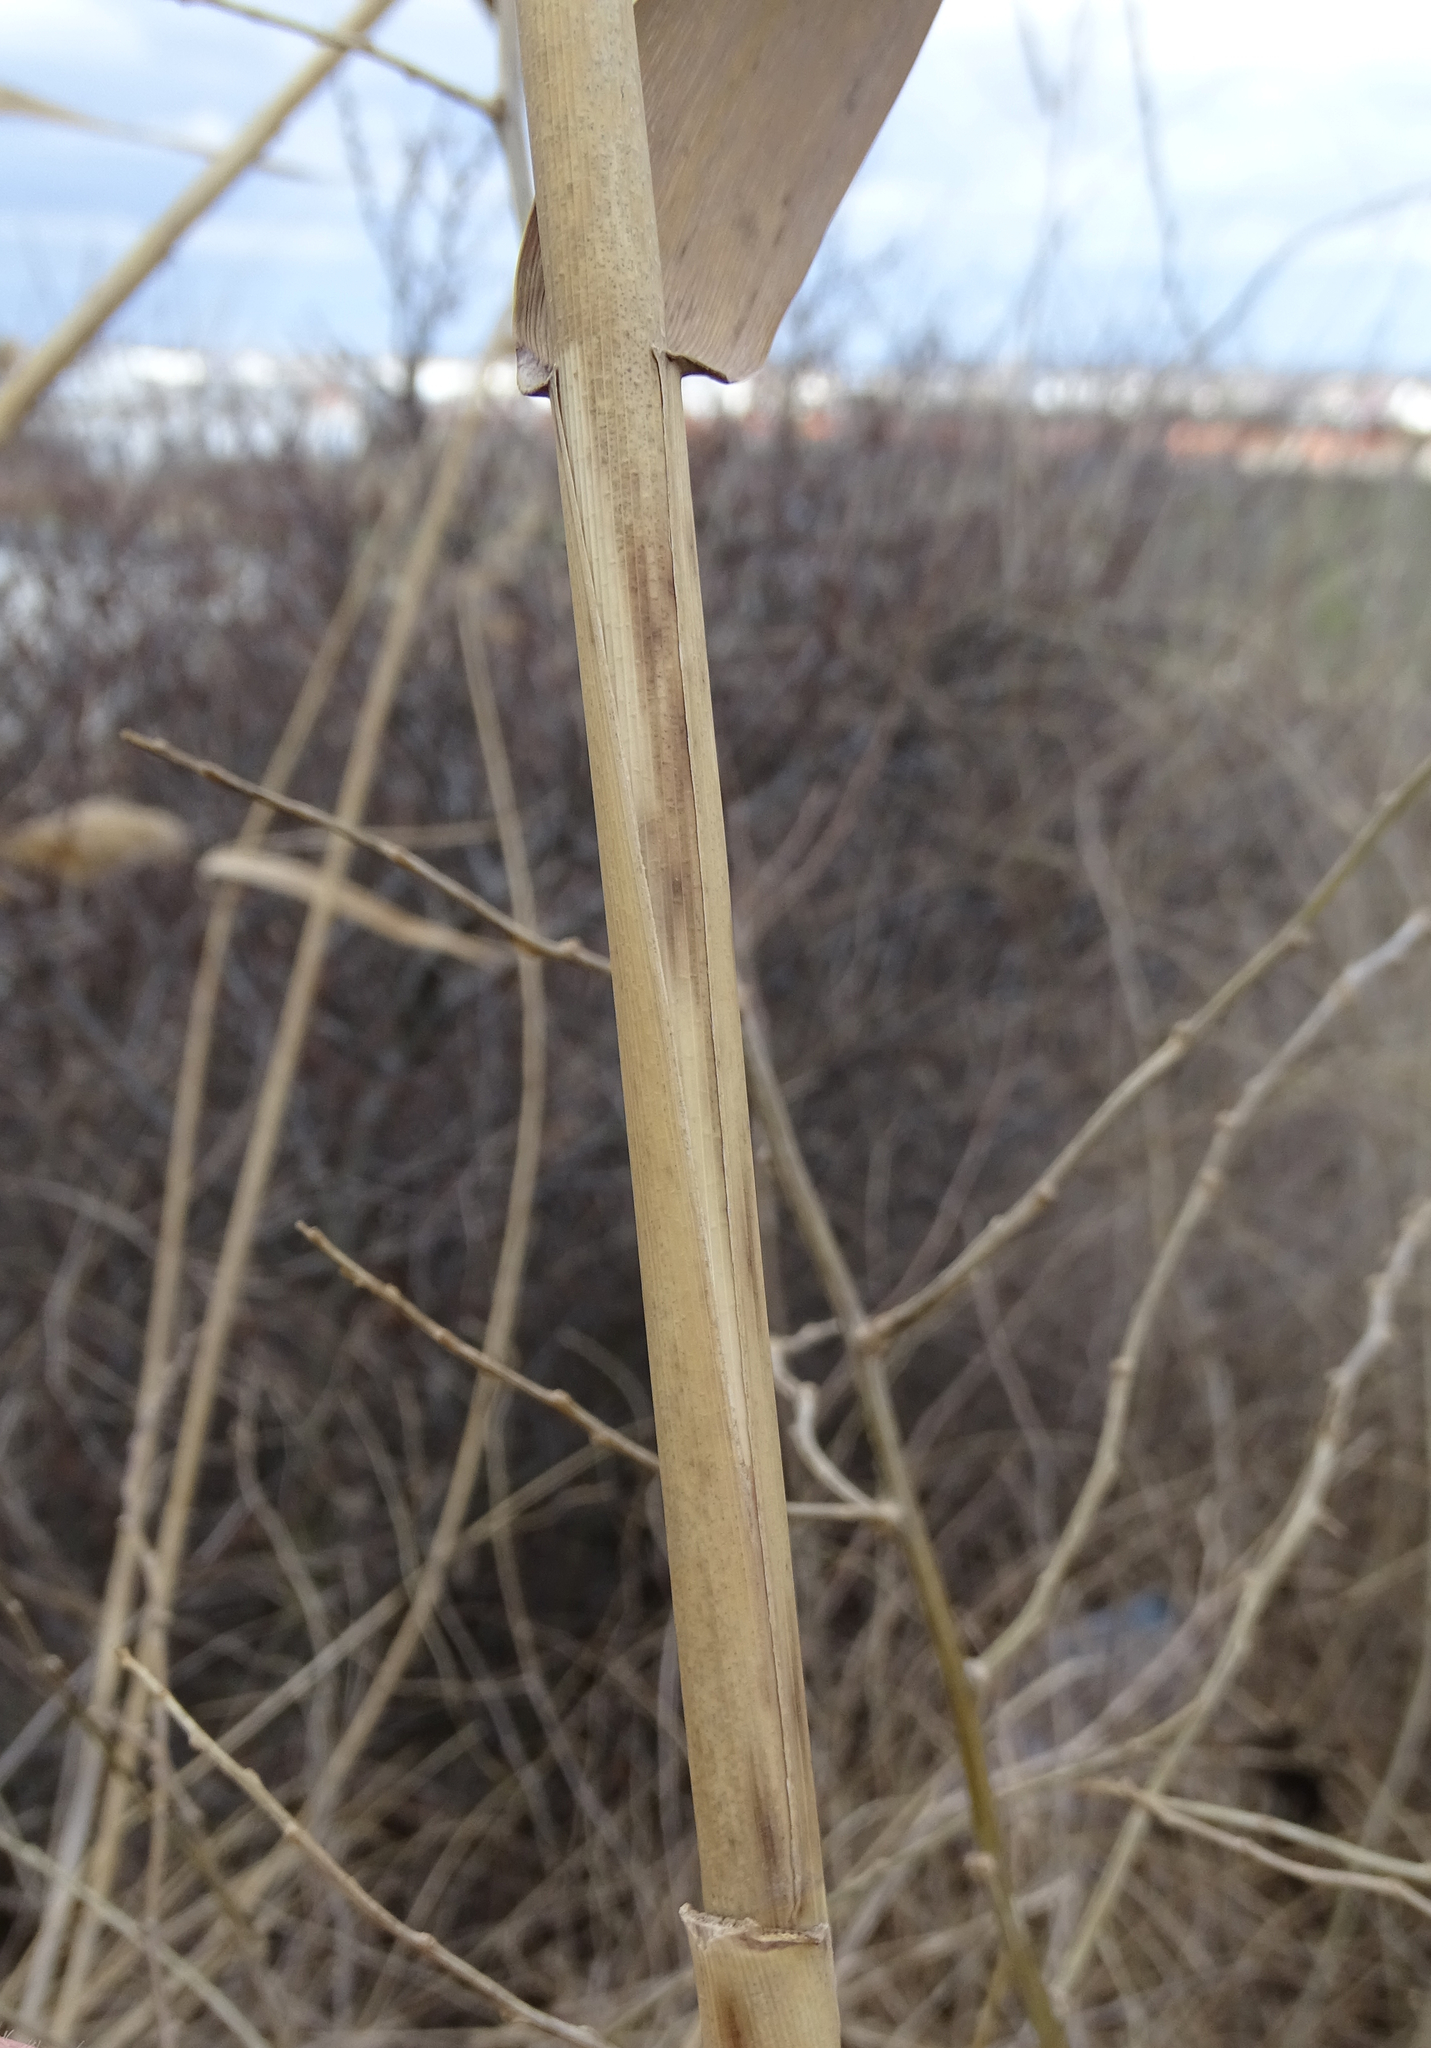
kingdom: Plantae
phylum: Tracheophyta
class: Liliopsida
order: Poales
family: Poaceae
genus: Phragmites
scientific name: Phragmites australis
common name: Common reed
